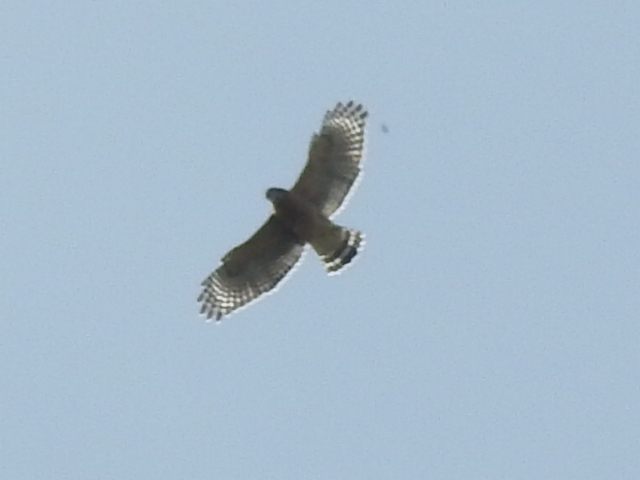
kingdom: Animalia
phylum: Chordata
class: Aves
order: Accipitriformes
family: Accipitridae
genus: Buteo
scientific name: Buteo lineatus
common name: Red-shouldered hawk
